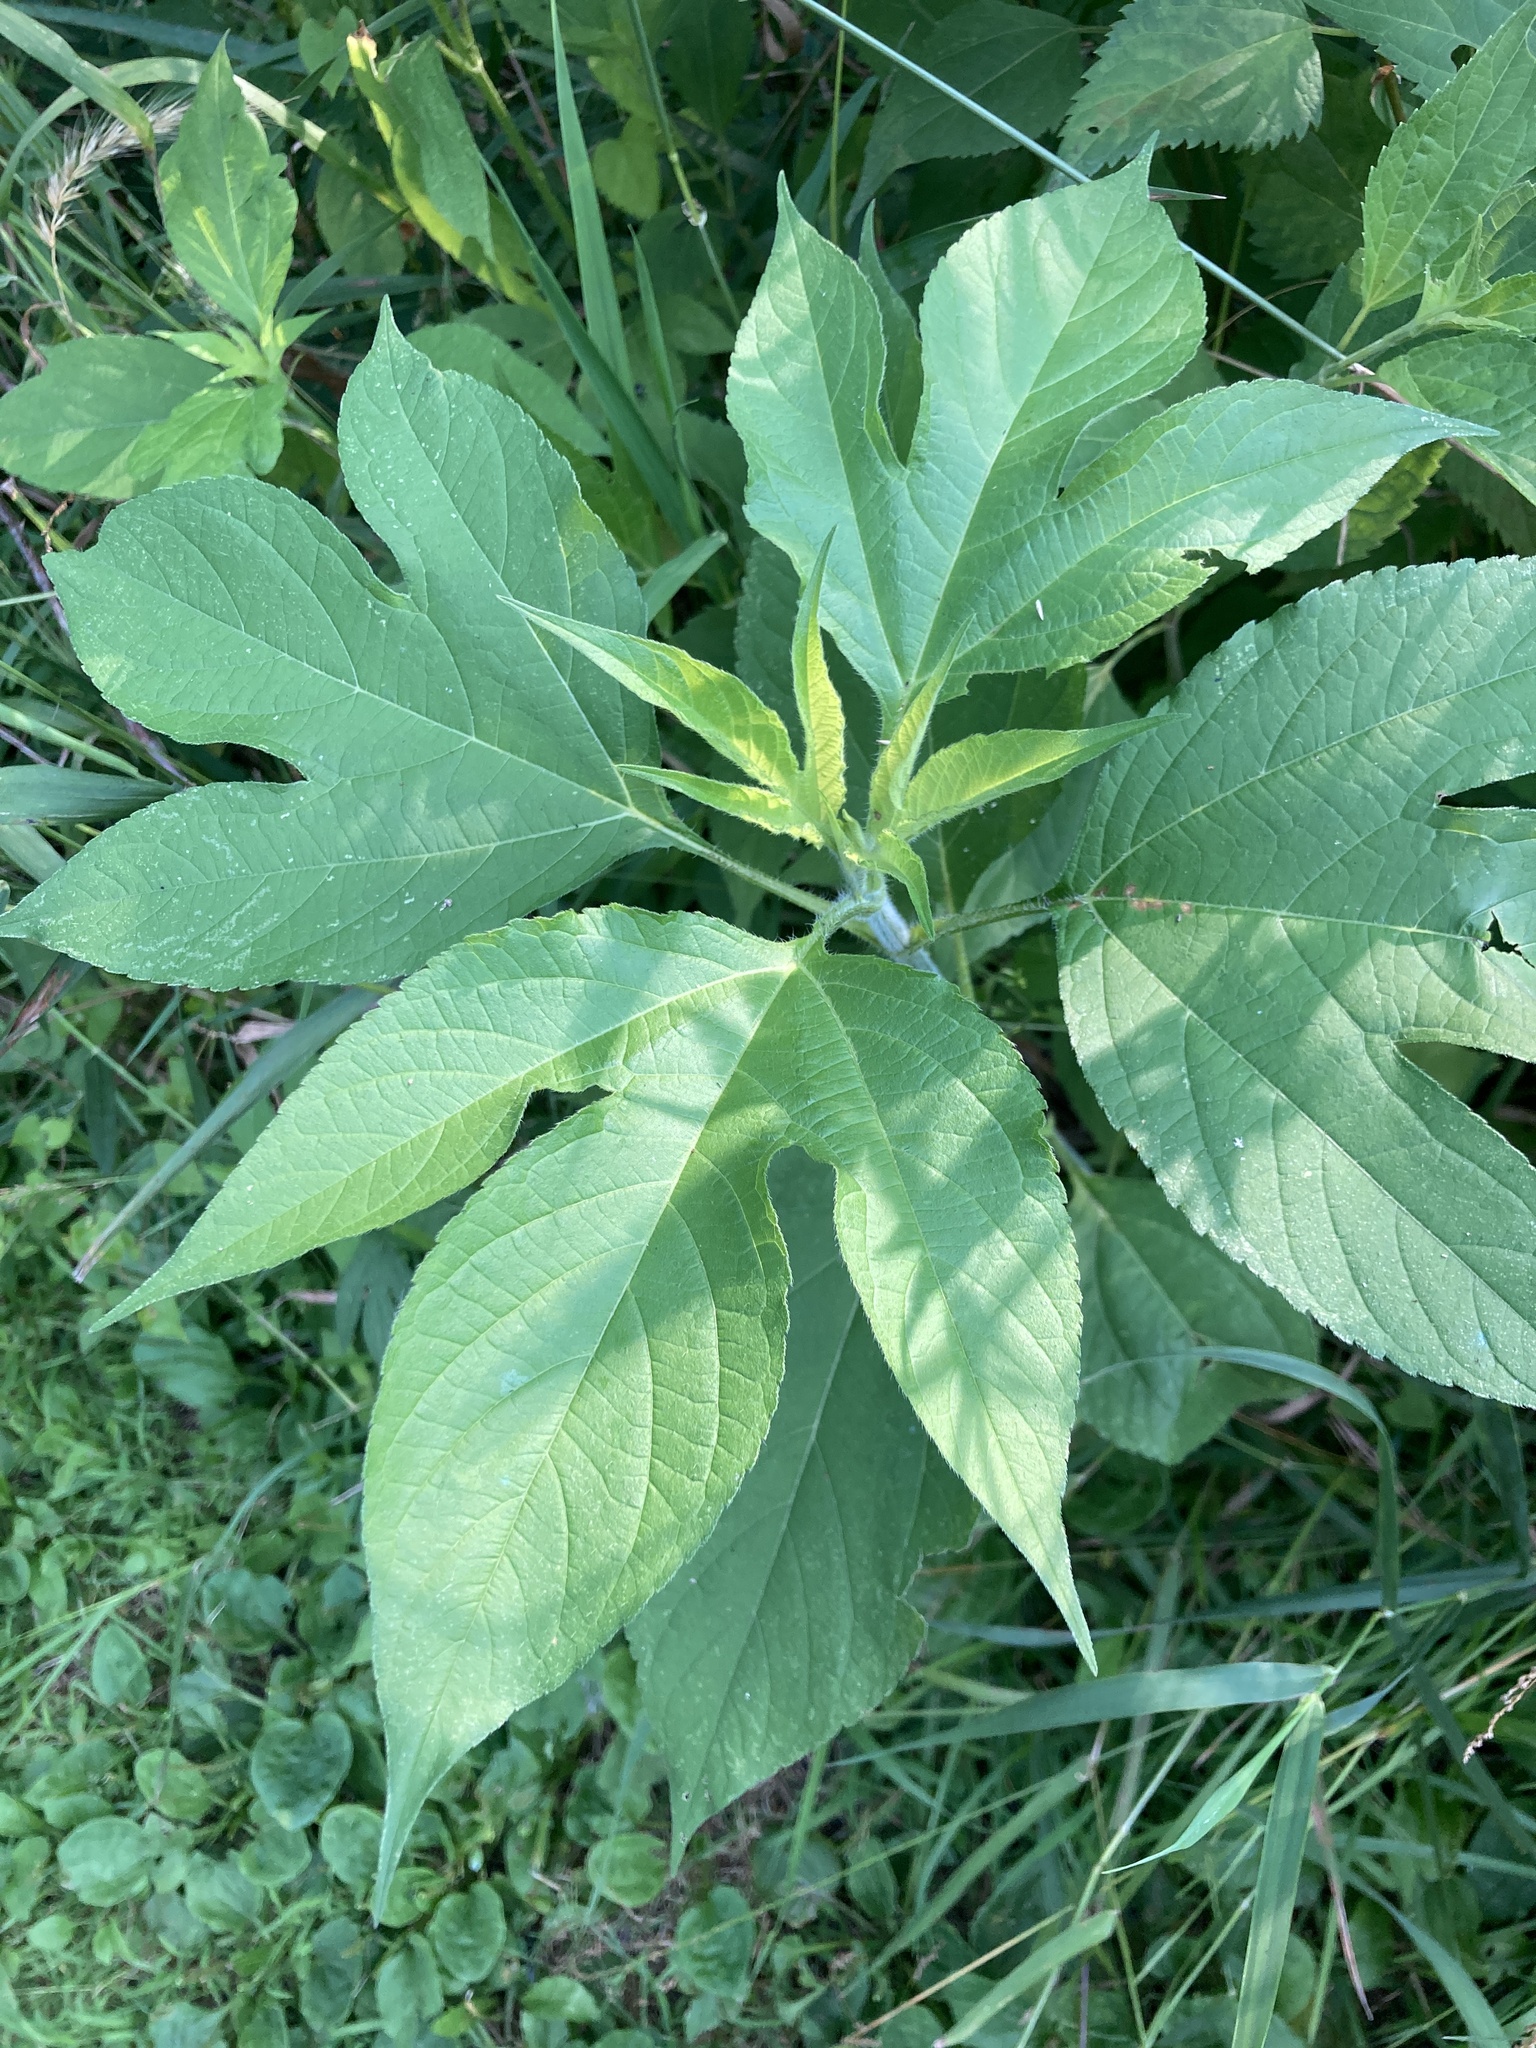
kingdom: Plantae
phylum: Tracheophyta
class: Magnoliopsida
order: Asterales
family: Asteraceae
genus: Ambrosia
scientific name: Ambrosia trifida
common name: Giant ragweed
